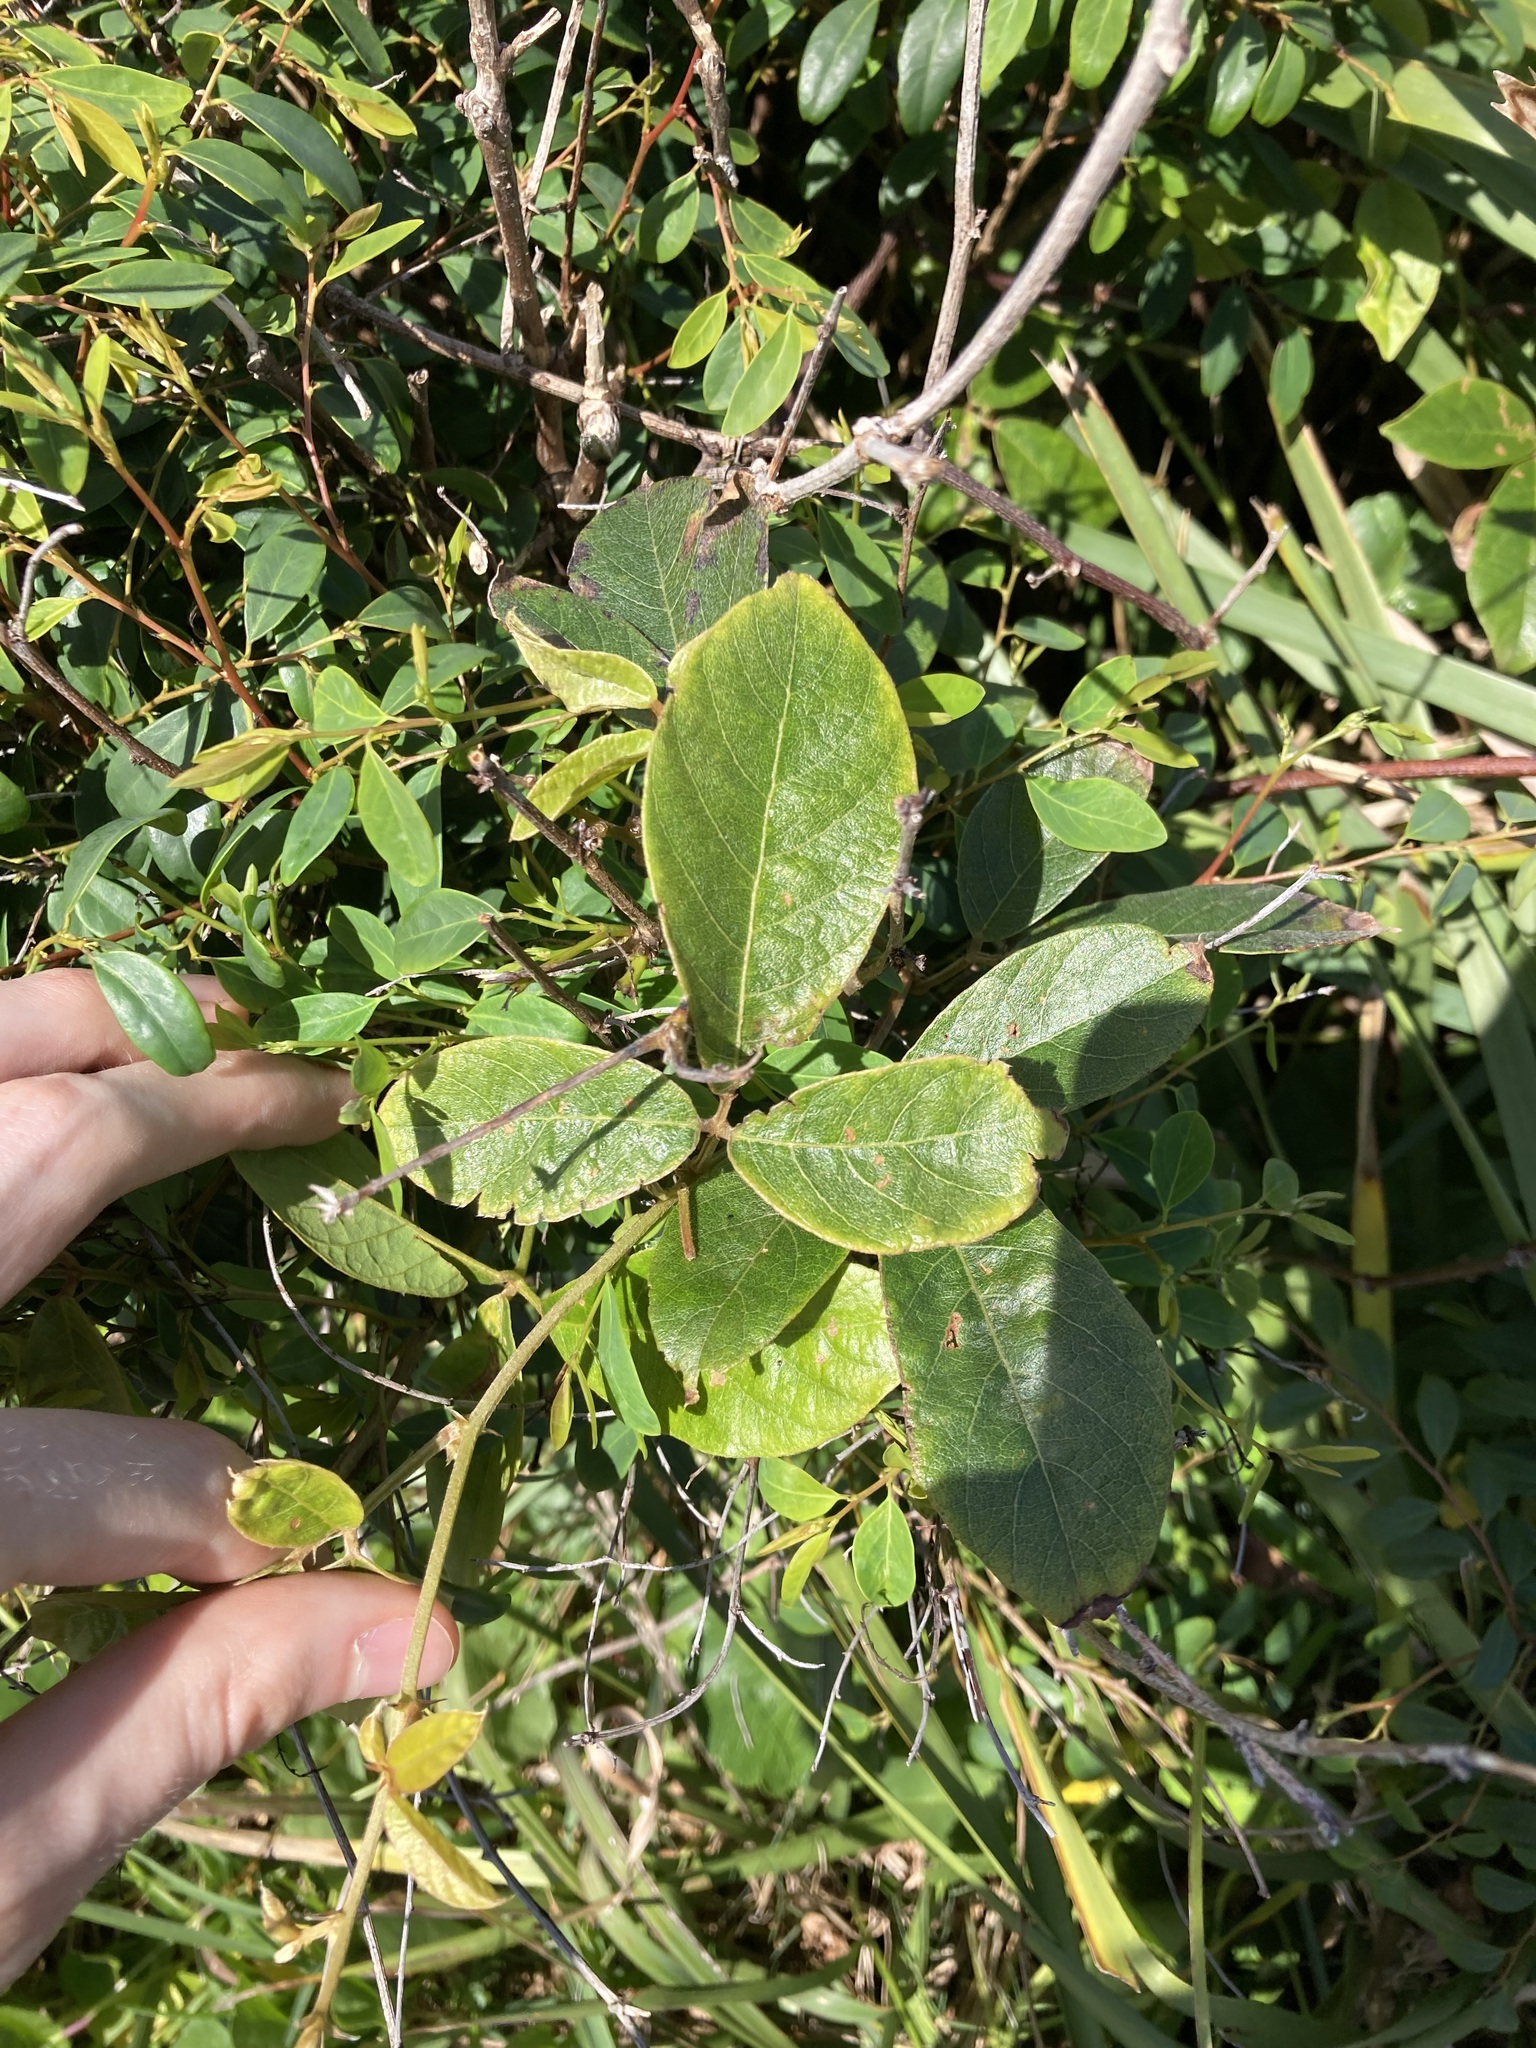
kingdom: Plantae
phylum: Tracheophyta
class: Magnoliopsida
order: Fabales
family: Fabaceae
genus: Kennedia
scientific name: Kennedia rubicunda
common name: Red kennedy-pea
